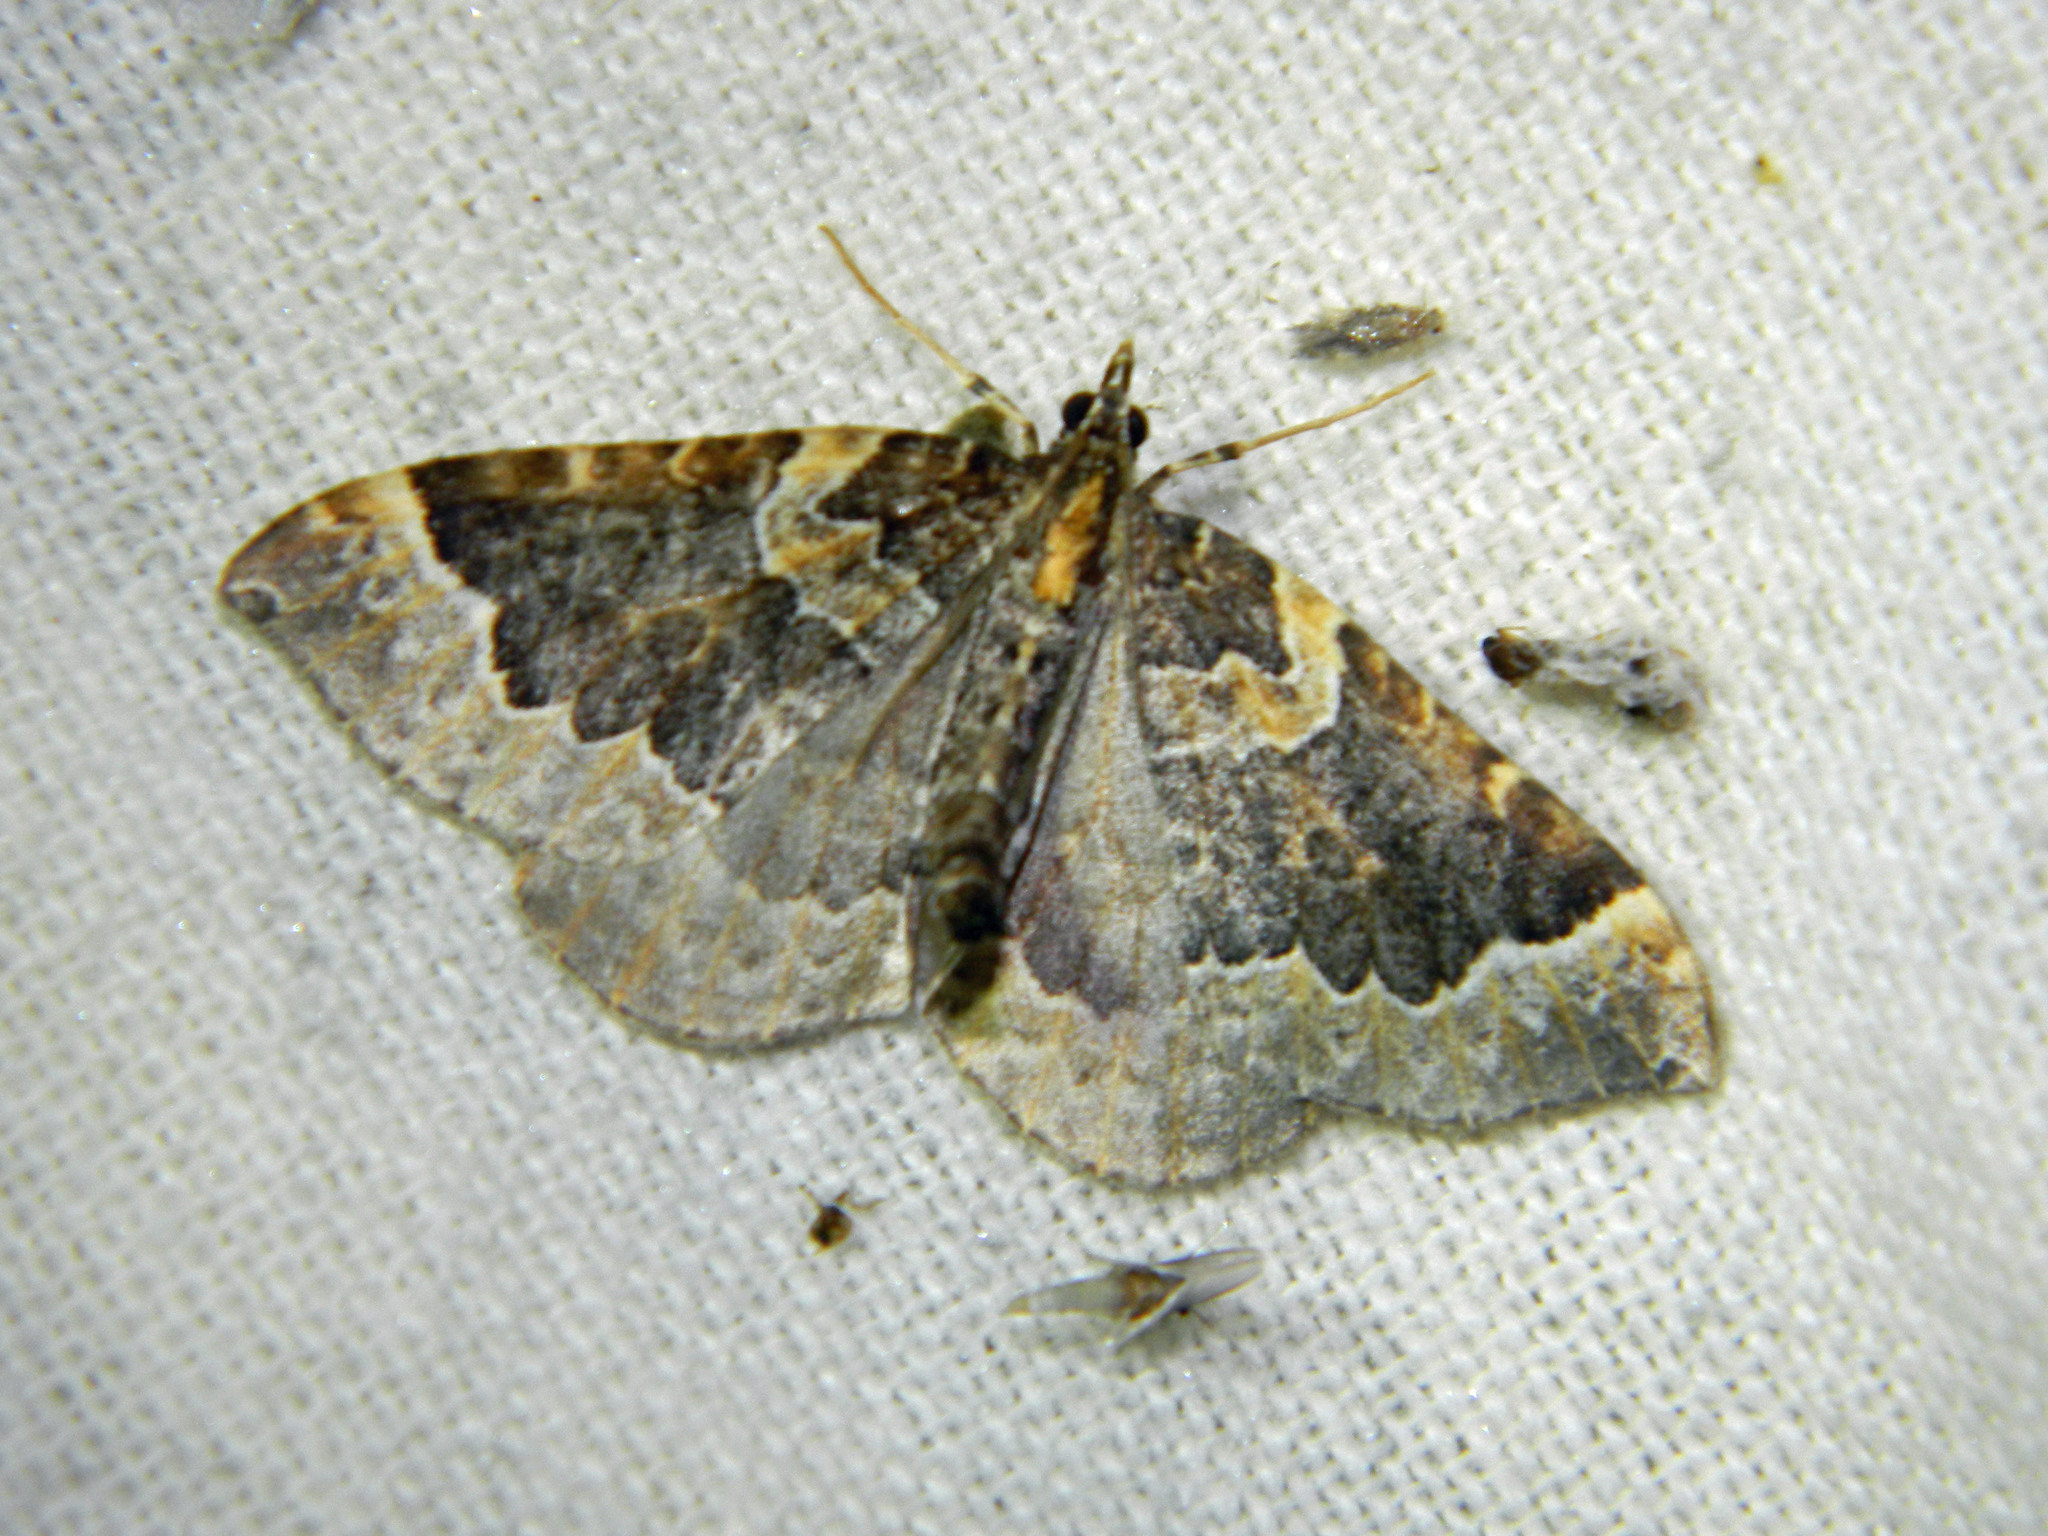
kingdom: Animalia
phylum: Arthropoda
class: Insecta
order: Lepidoptera
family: Geometridae
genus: Eulithis
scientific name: Eulithis flavibrunneata
